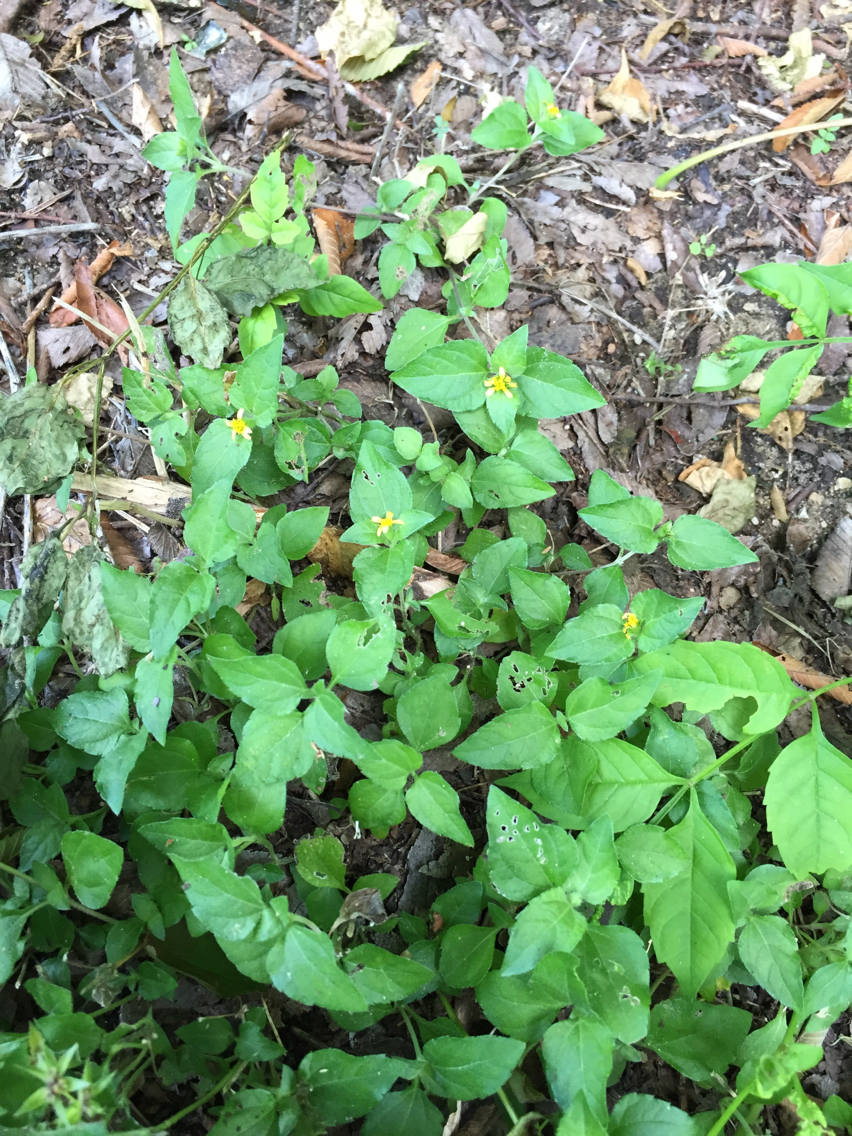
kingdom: Plantae
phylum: Tracheophyta
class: Magnoliopsida
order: Asterales
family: Asteraceae
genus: Calyptocarpus
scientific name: Calyptocarpus vialis
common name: Straggler daisy
